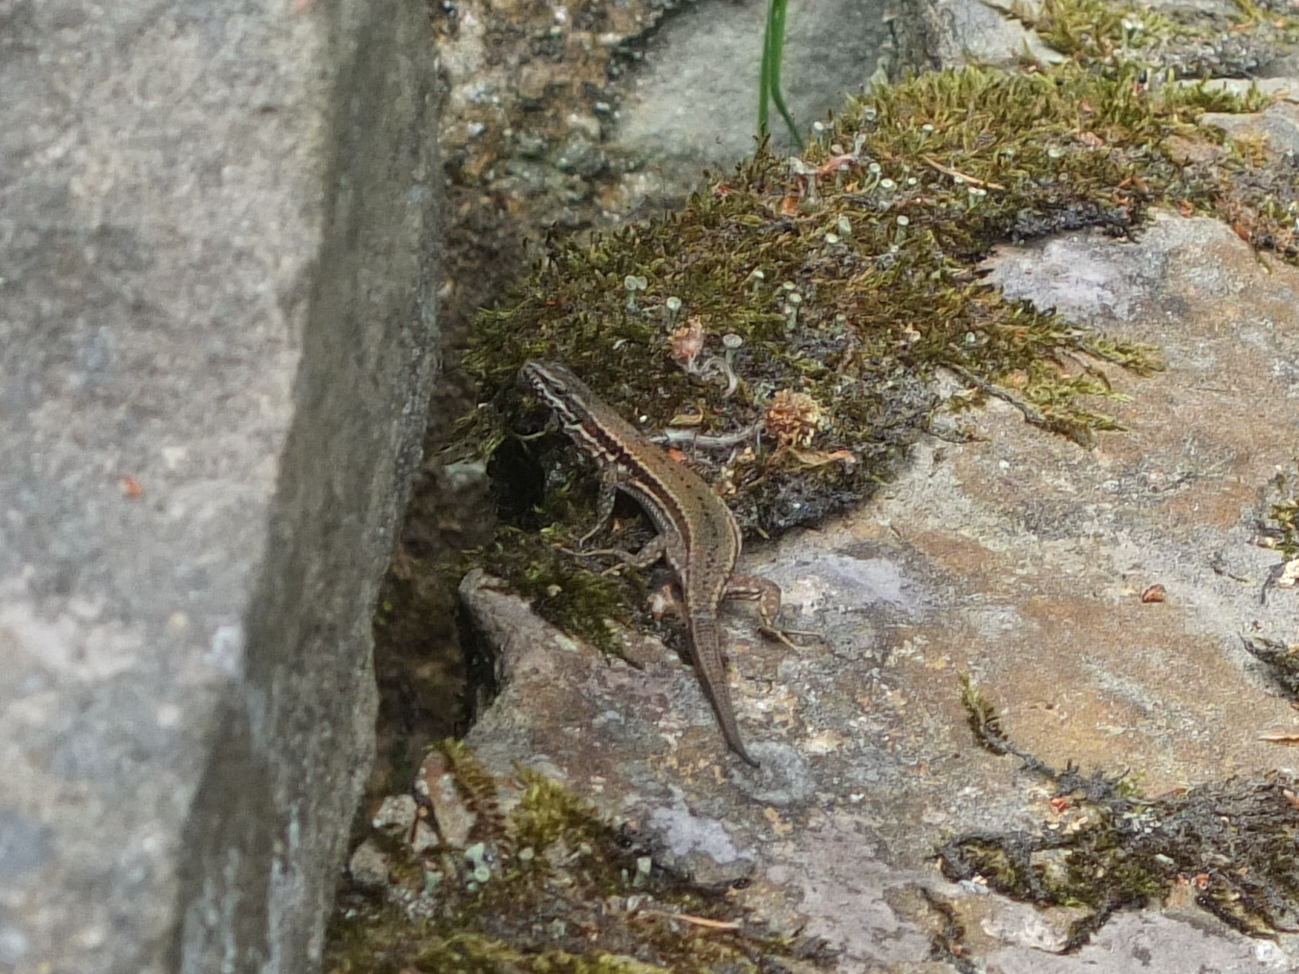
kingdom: Animalia
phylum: Chordata
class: Squamata
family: Lacertidae
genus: Podarcis
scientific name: Podarcis muralis
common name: Common wall lizard
